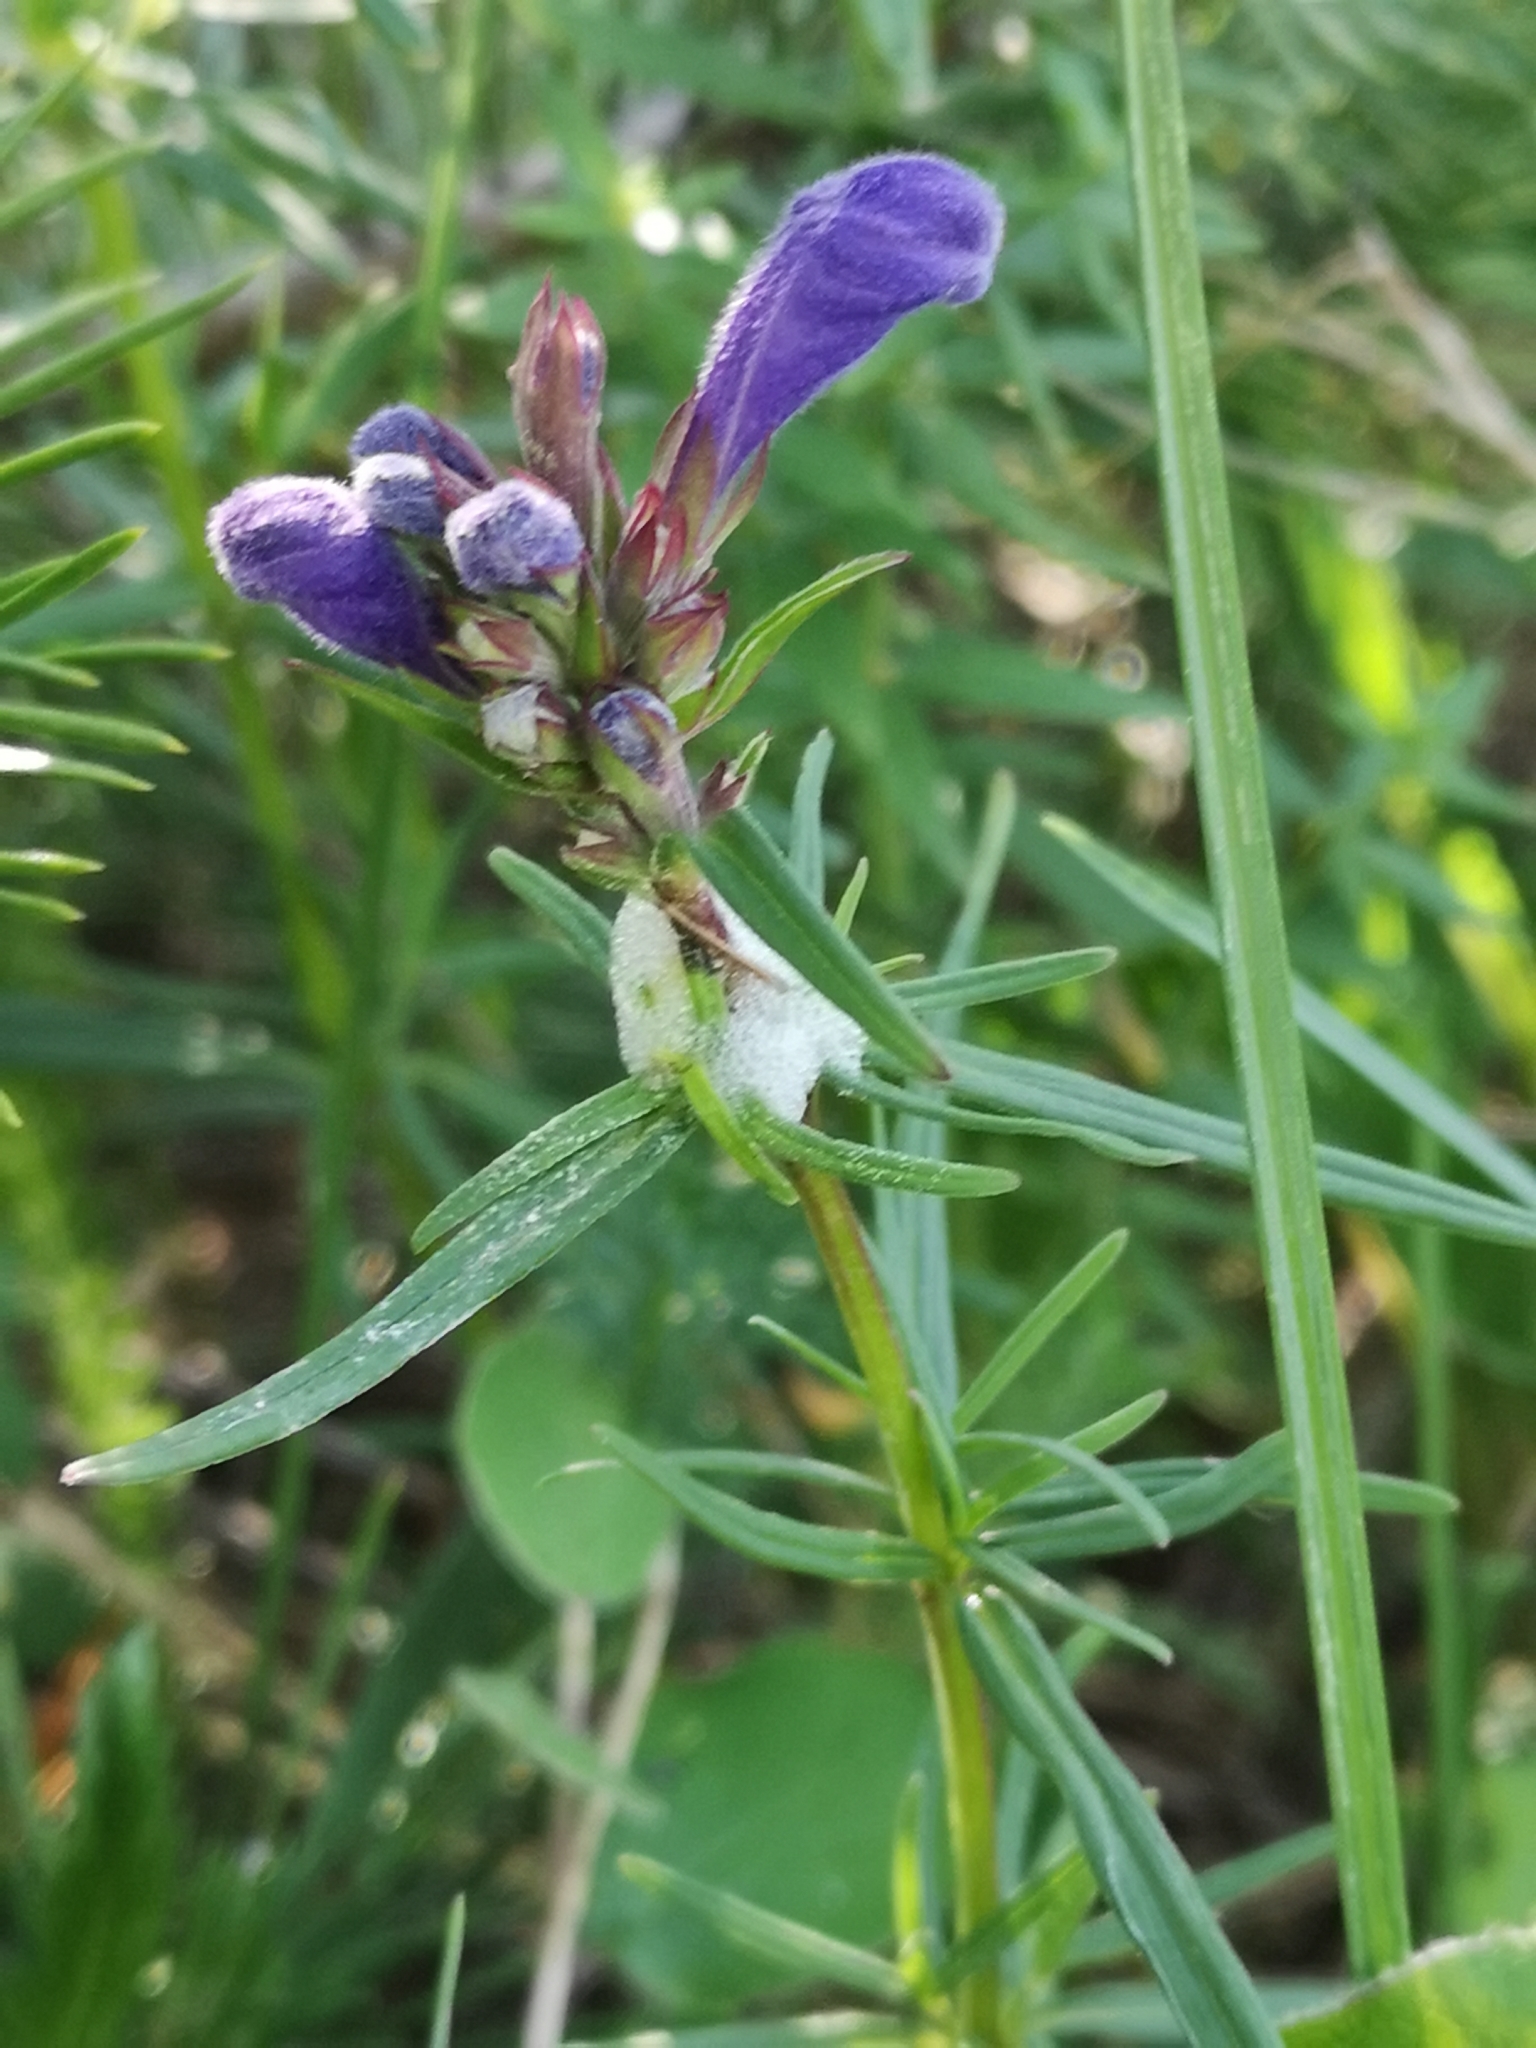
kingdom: Plantae
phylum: Tracheophyta
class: Magnoliopsida
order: Lamiales
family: Lamiaceae
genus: Dracocephalum
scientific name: Dracocephalum ruyschiana
